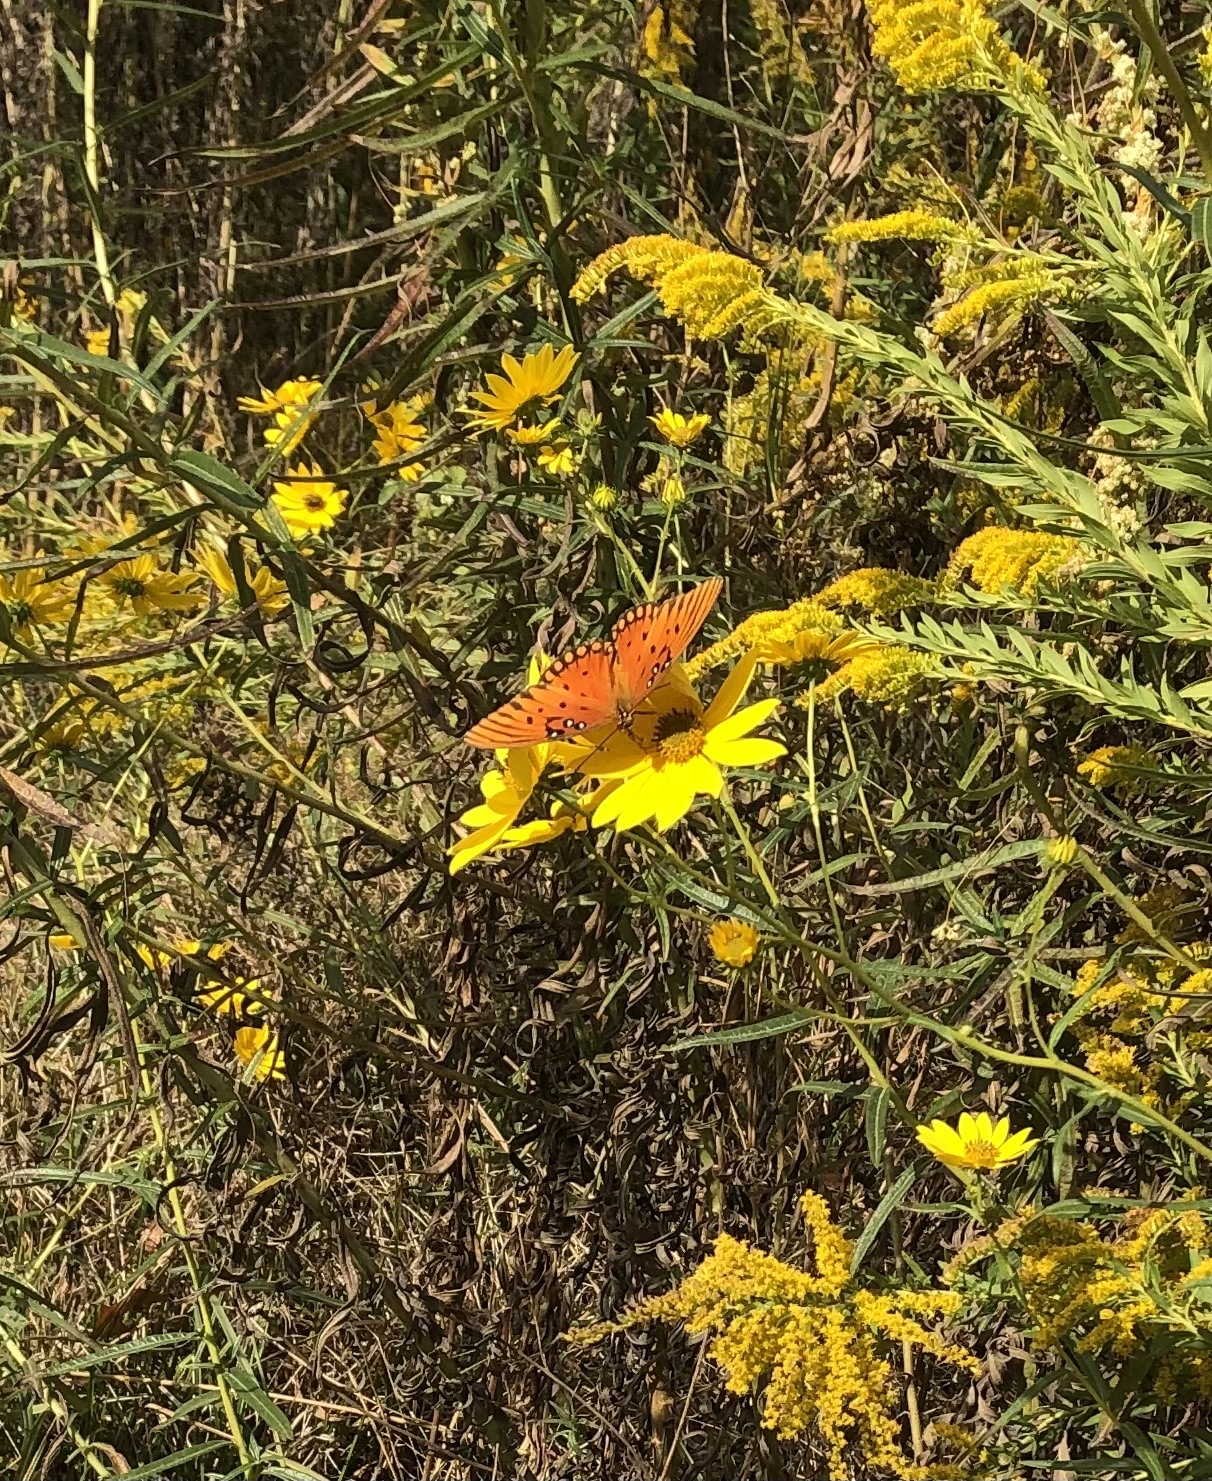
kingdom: Animalia
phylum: Arthropoda
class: Insecta
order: Lepidoptera
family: Nymphalidae
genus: Dione
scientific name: Dione vanillae
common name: Gulf fritillary
